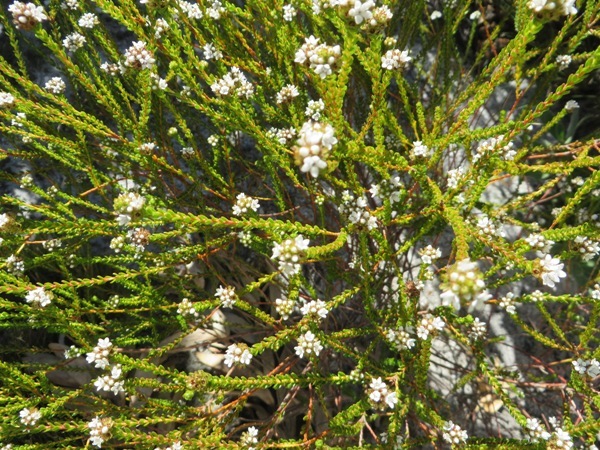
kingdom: Plantae
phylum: Tracheophyta
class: Magnoliopsida
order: Sapindales
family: Rutaceae
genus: Euchaetis
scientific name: Euchaetis glabra
